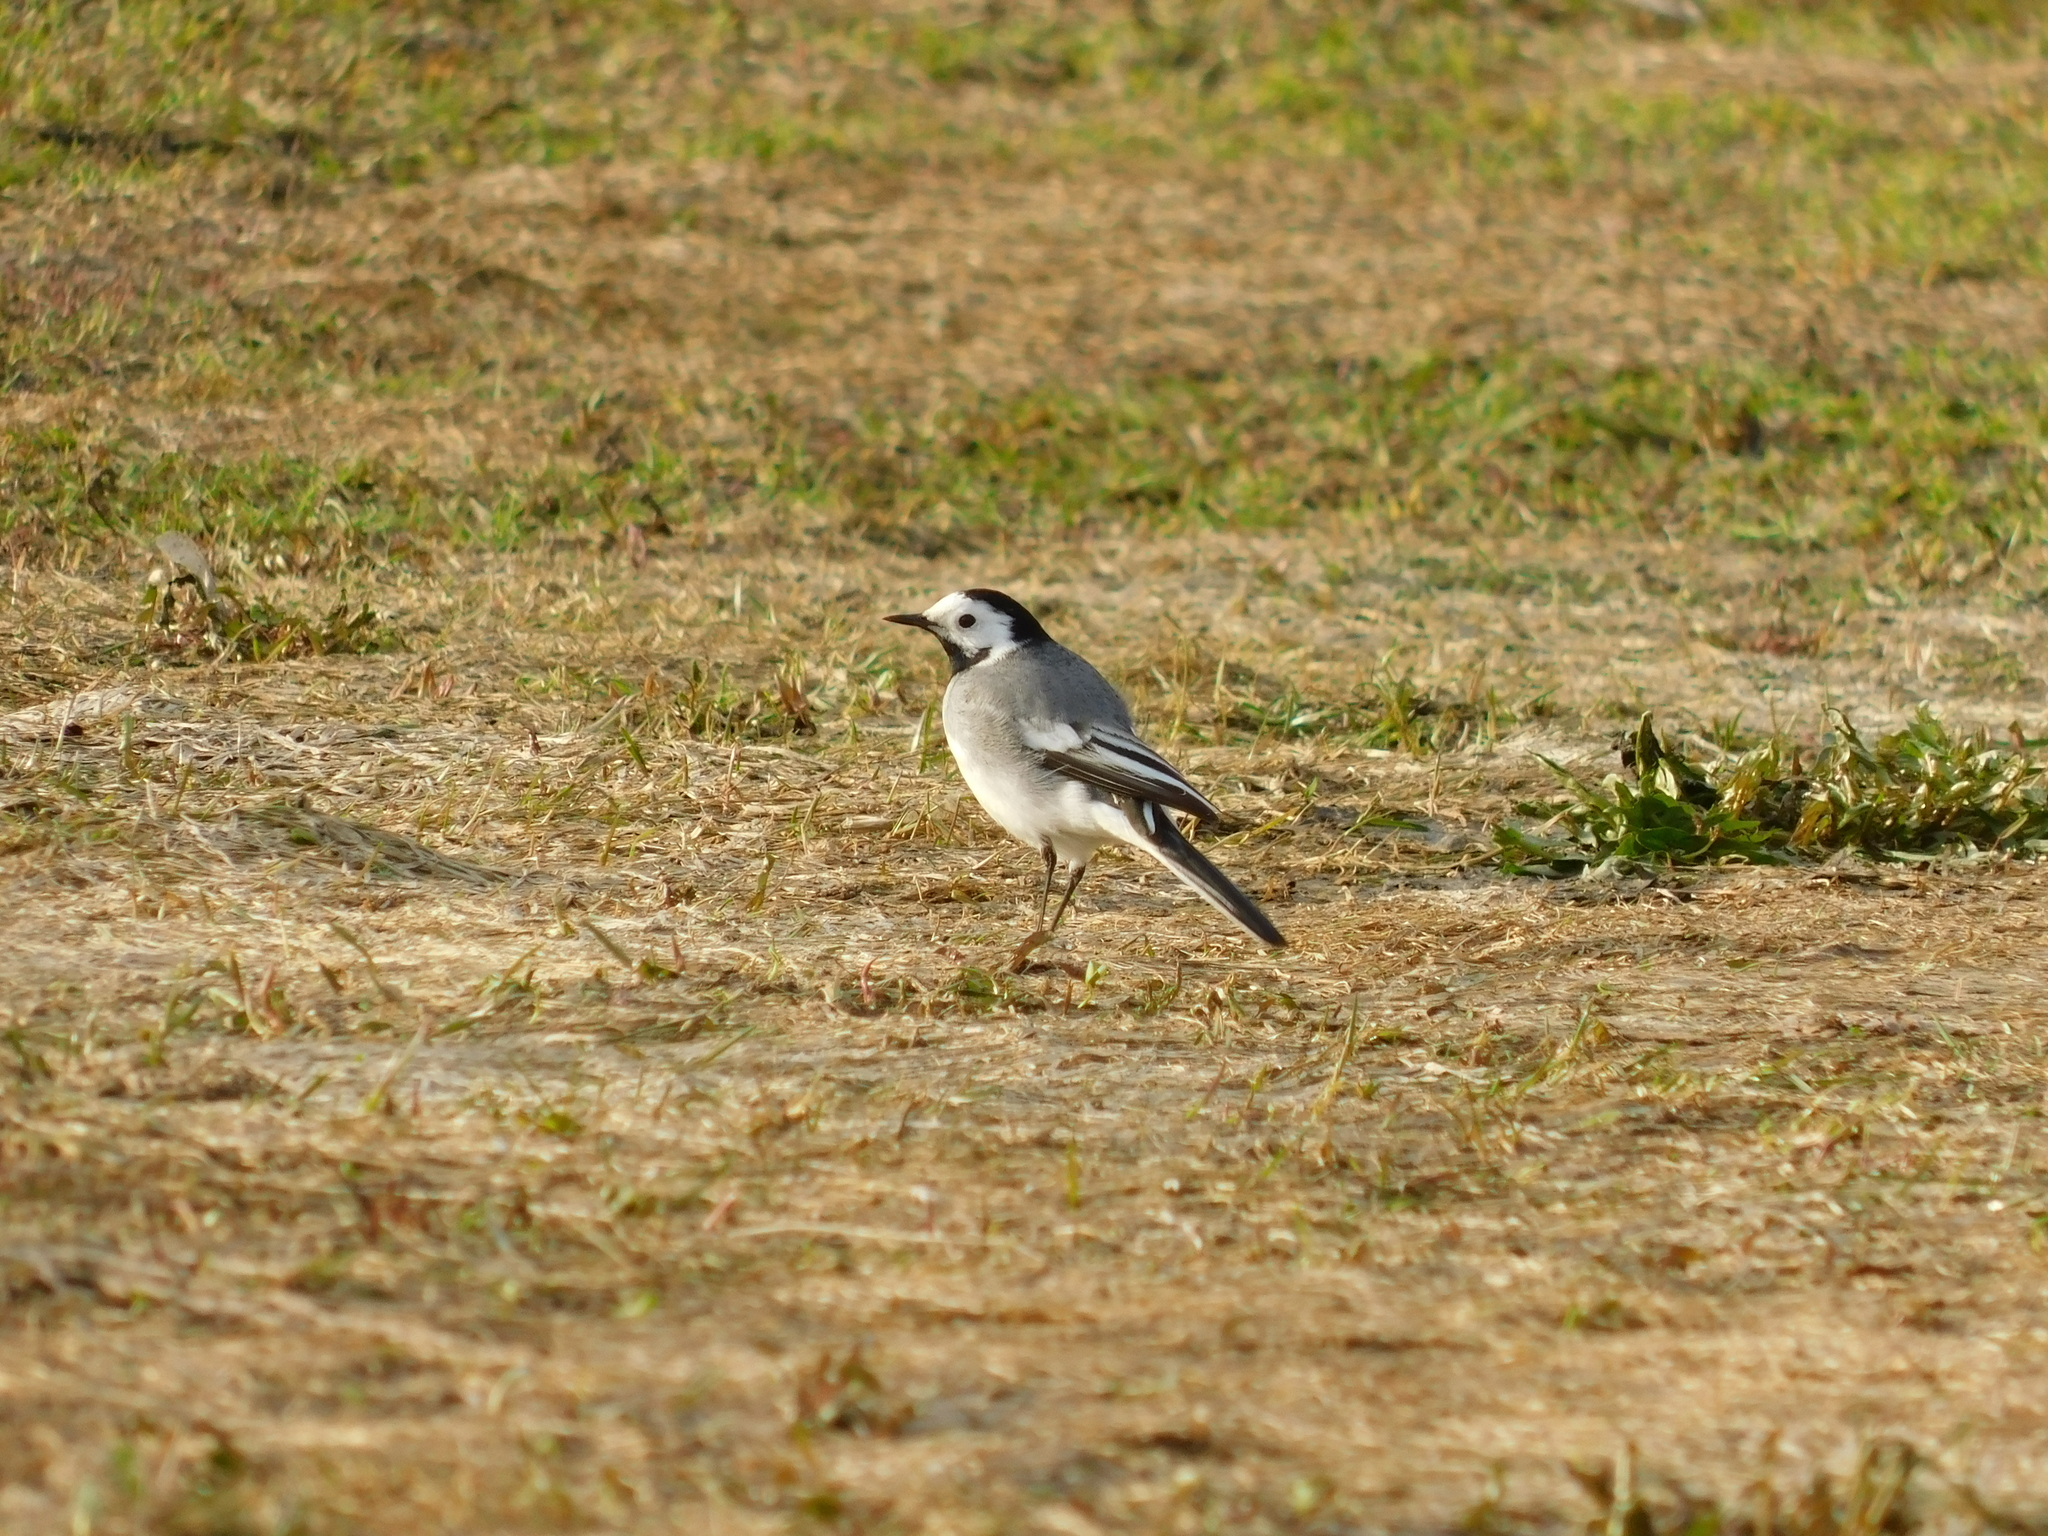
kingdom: Animalia
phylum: Chordata
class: Aves
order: Passeriformes
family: Motacillidae
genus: Motacilla
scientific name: Motacilla alba
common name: White wagtail
